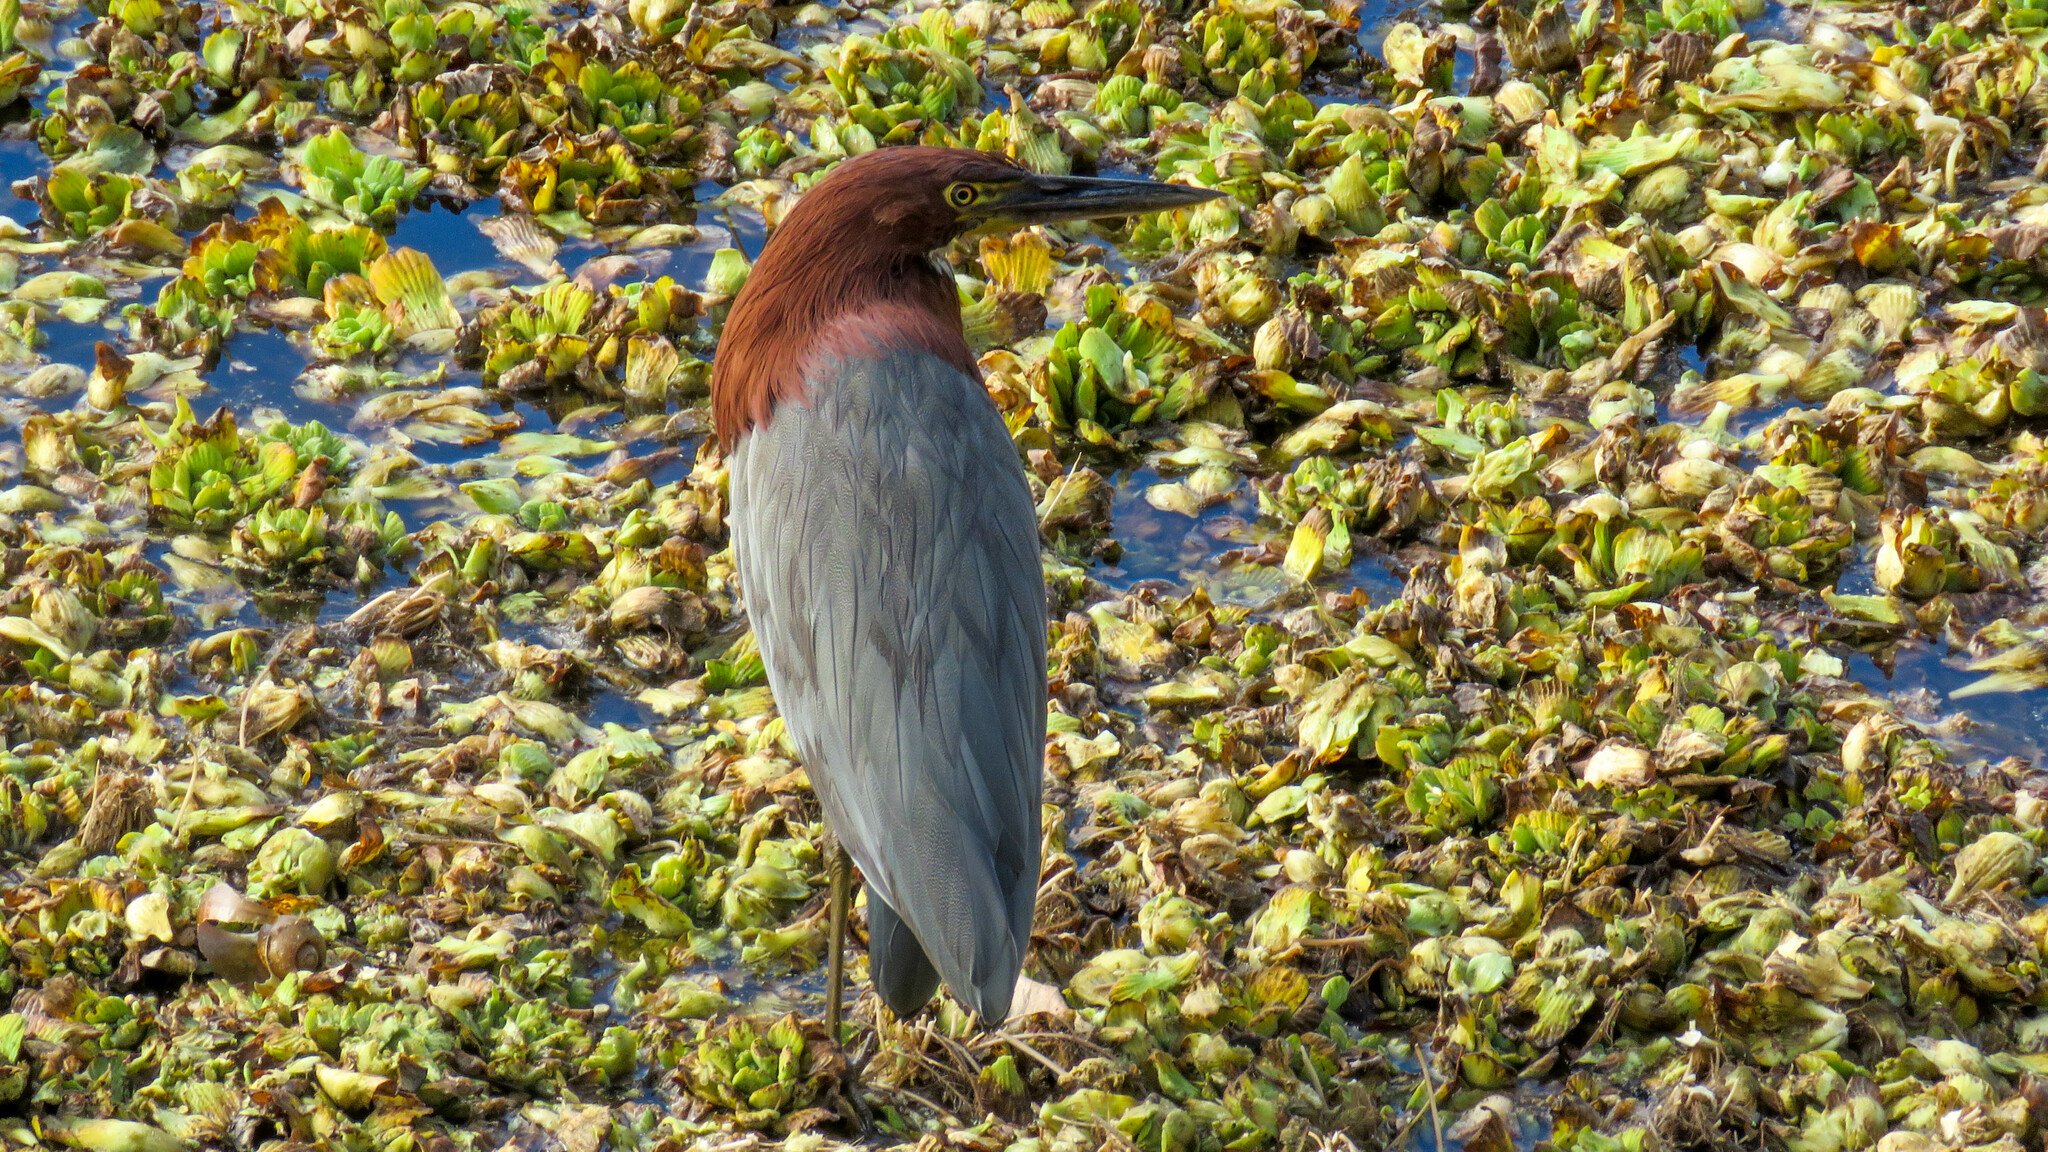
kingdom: Animalia
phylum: Chordata
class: Aves
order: Pelecaniformes
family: Ardeidae
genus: Tigrisoma
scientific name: Tigrisoma lineatum
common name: Rufescent tiger-heron
